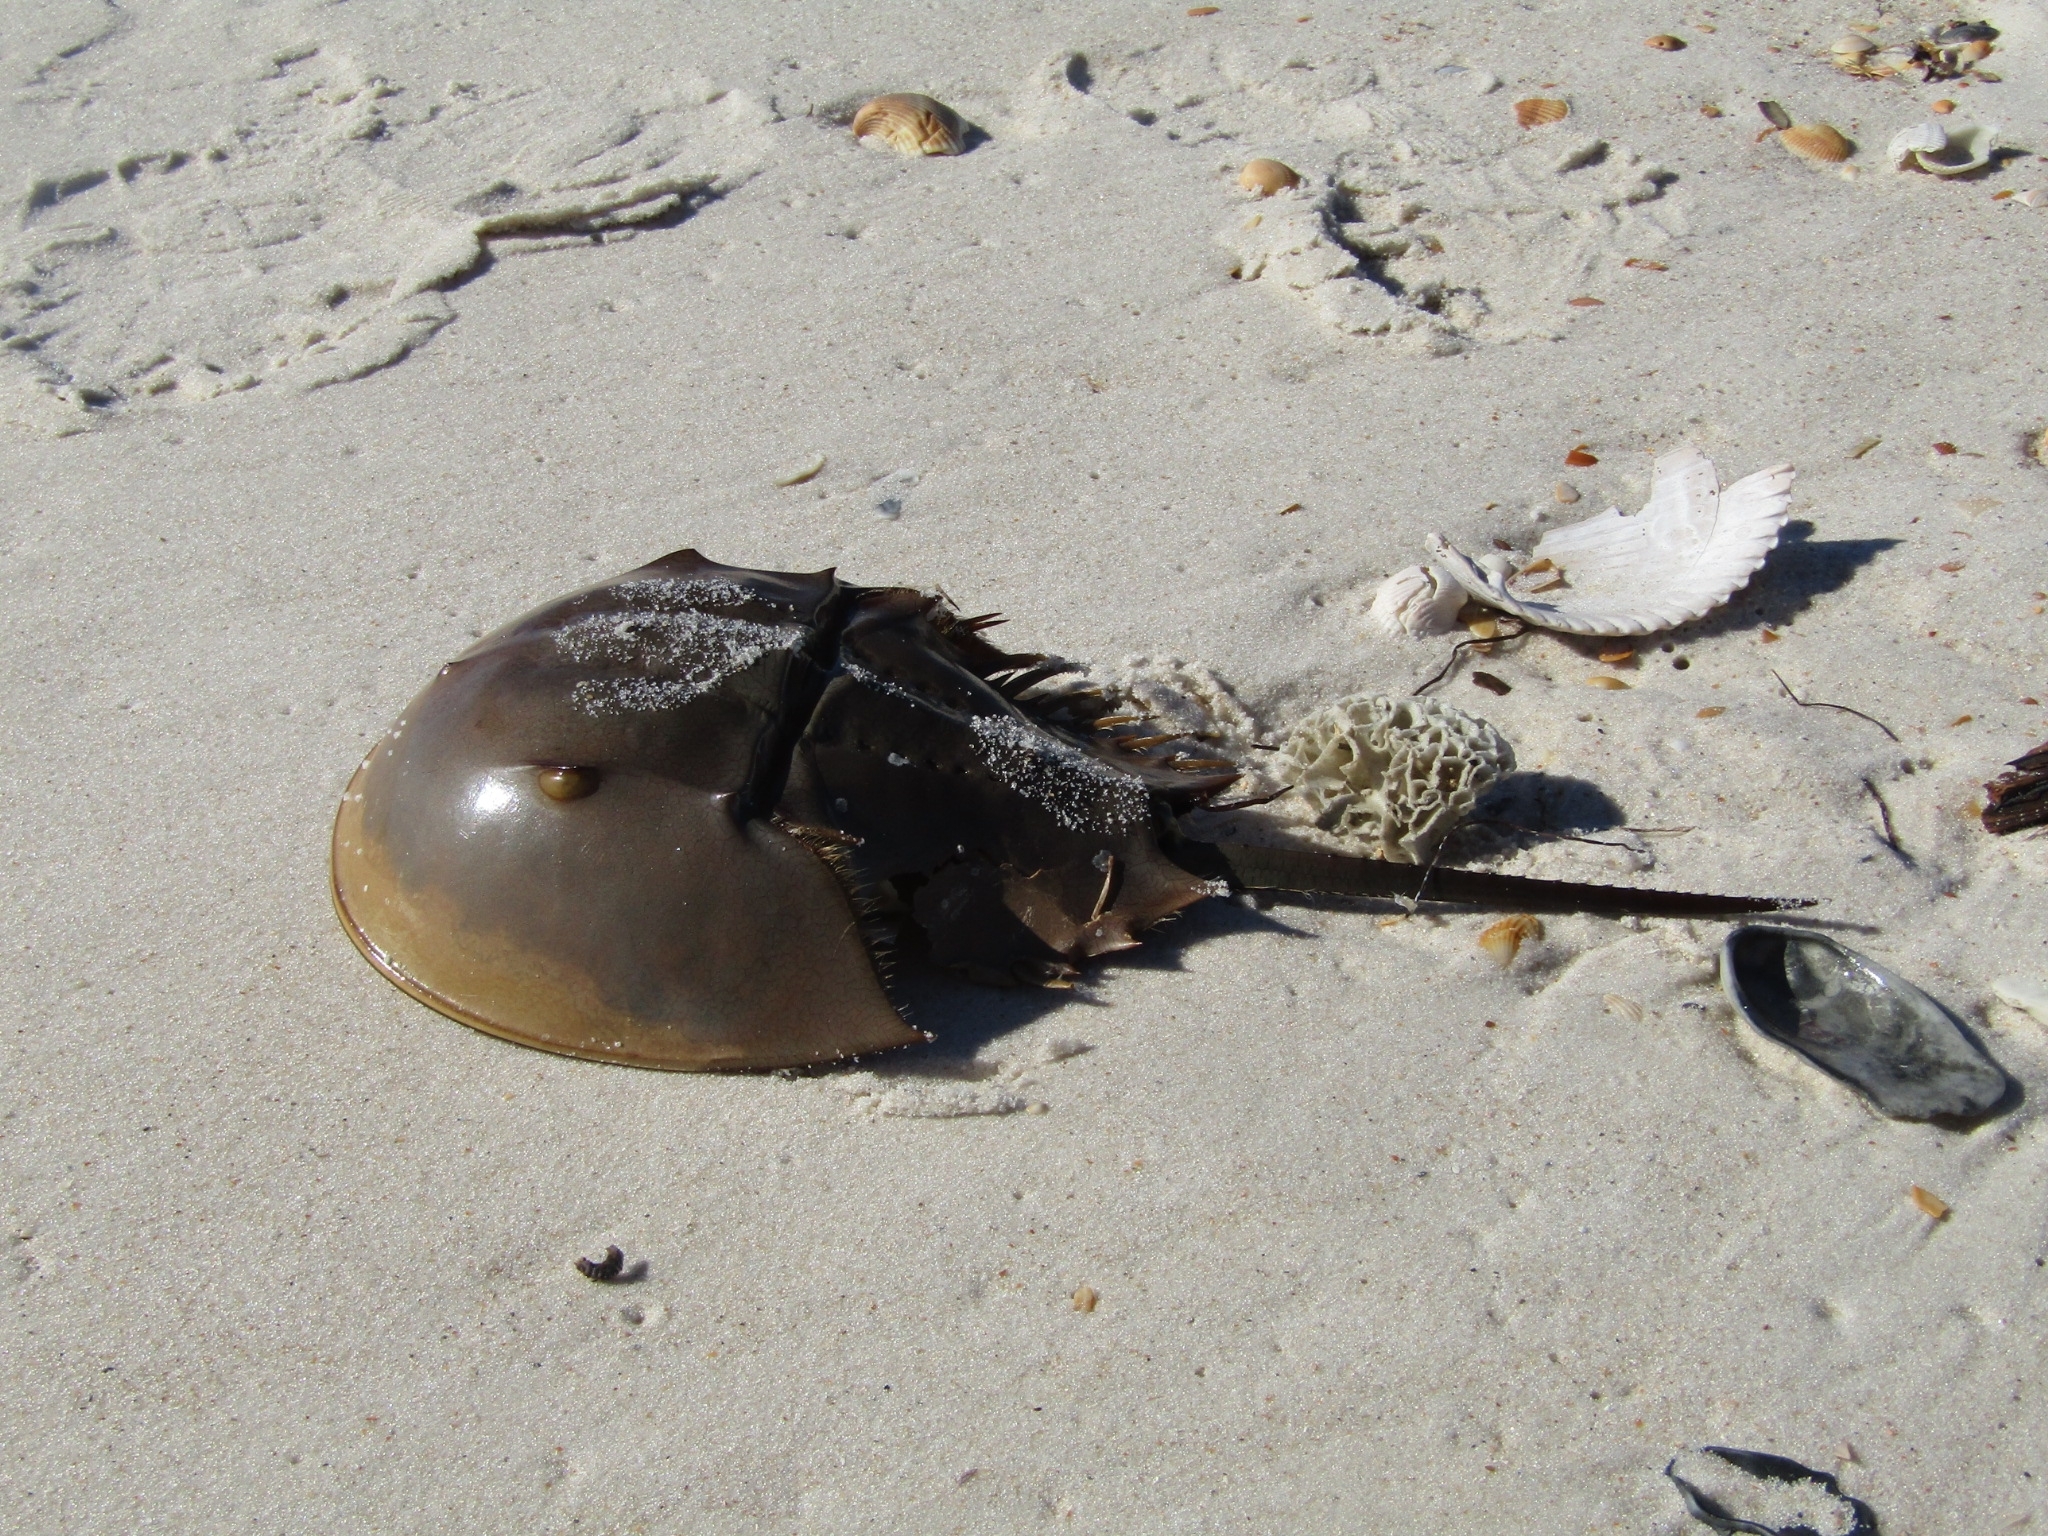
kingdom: Animalia
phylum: Arthropoda
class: Merostomata
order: Xiphosurida
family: Limulidae
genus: Limulus
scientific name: Limulus polyphemus
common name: Horseshoe crab
